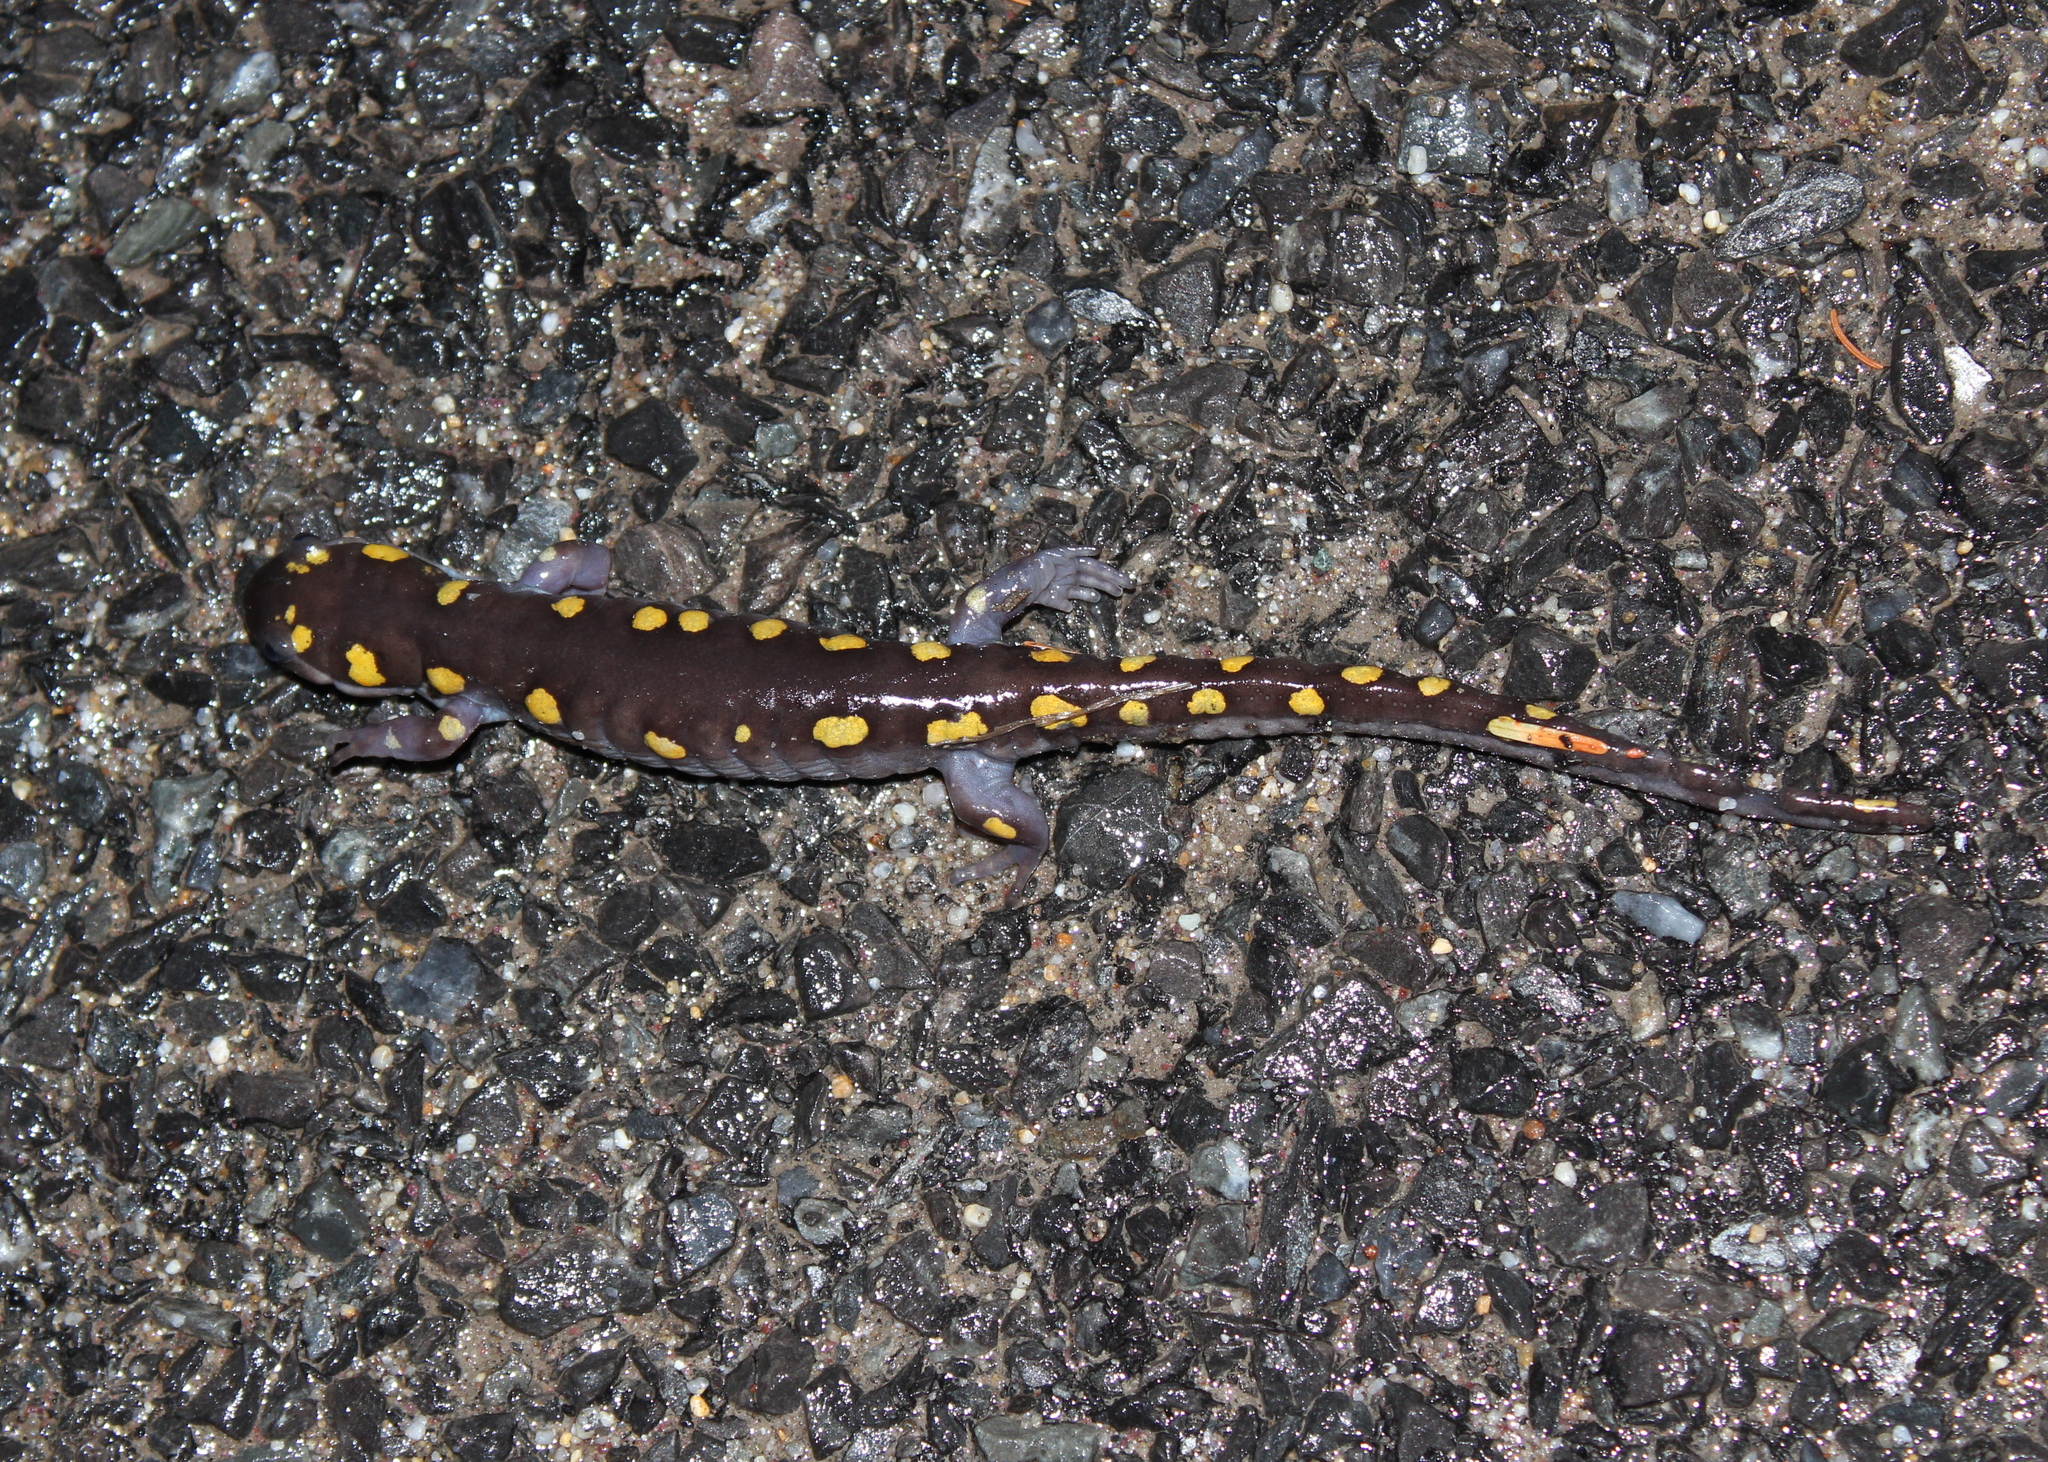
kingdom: Animalia
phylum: Chordata
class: Amphibia
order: Caudata
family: Ambystomatidae
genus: Ambystoma
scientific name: Ambystoma maculatum
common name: Spotted salamander
